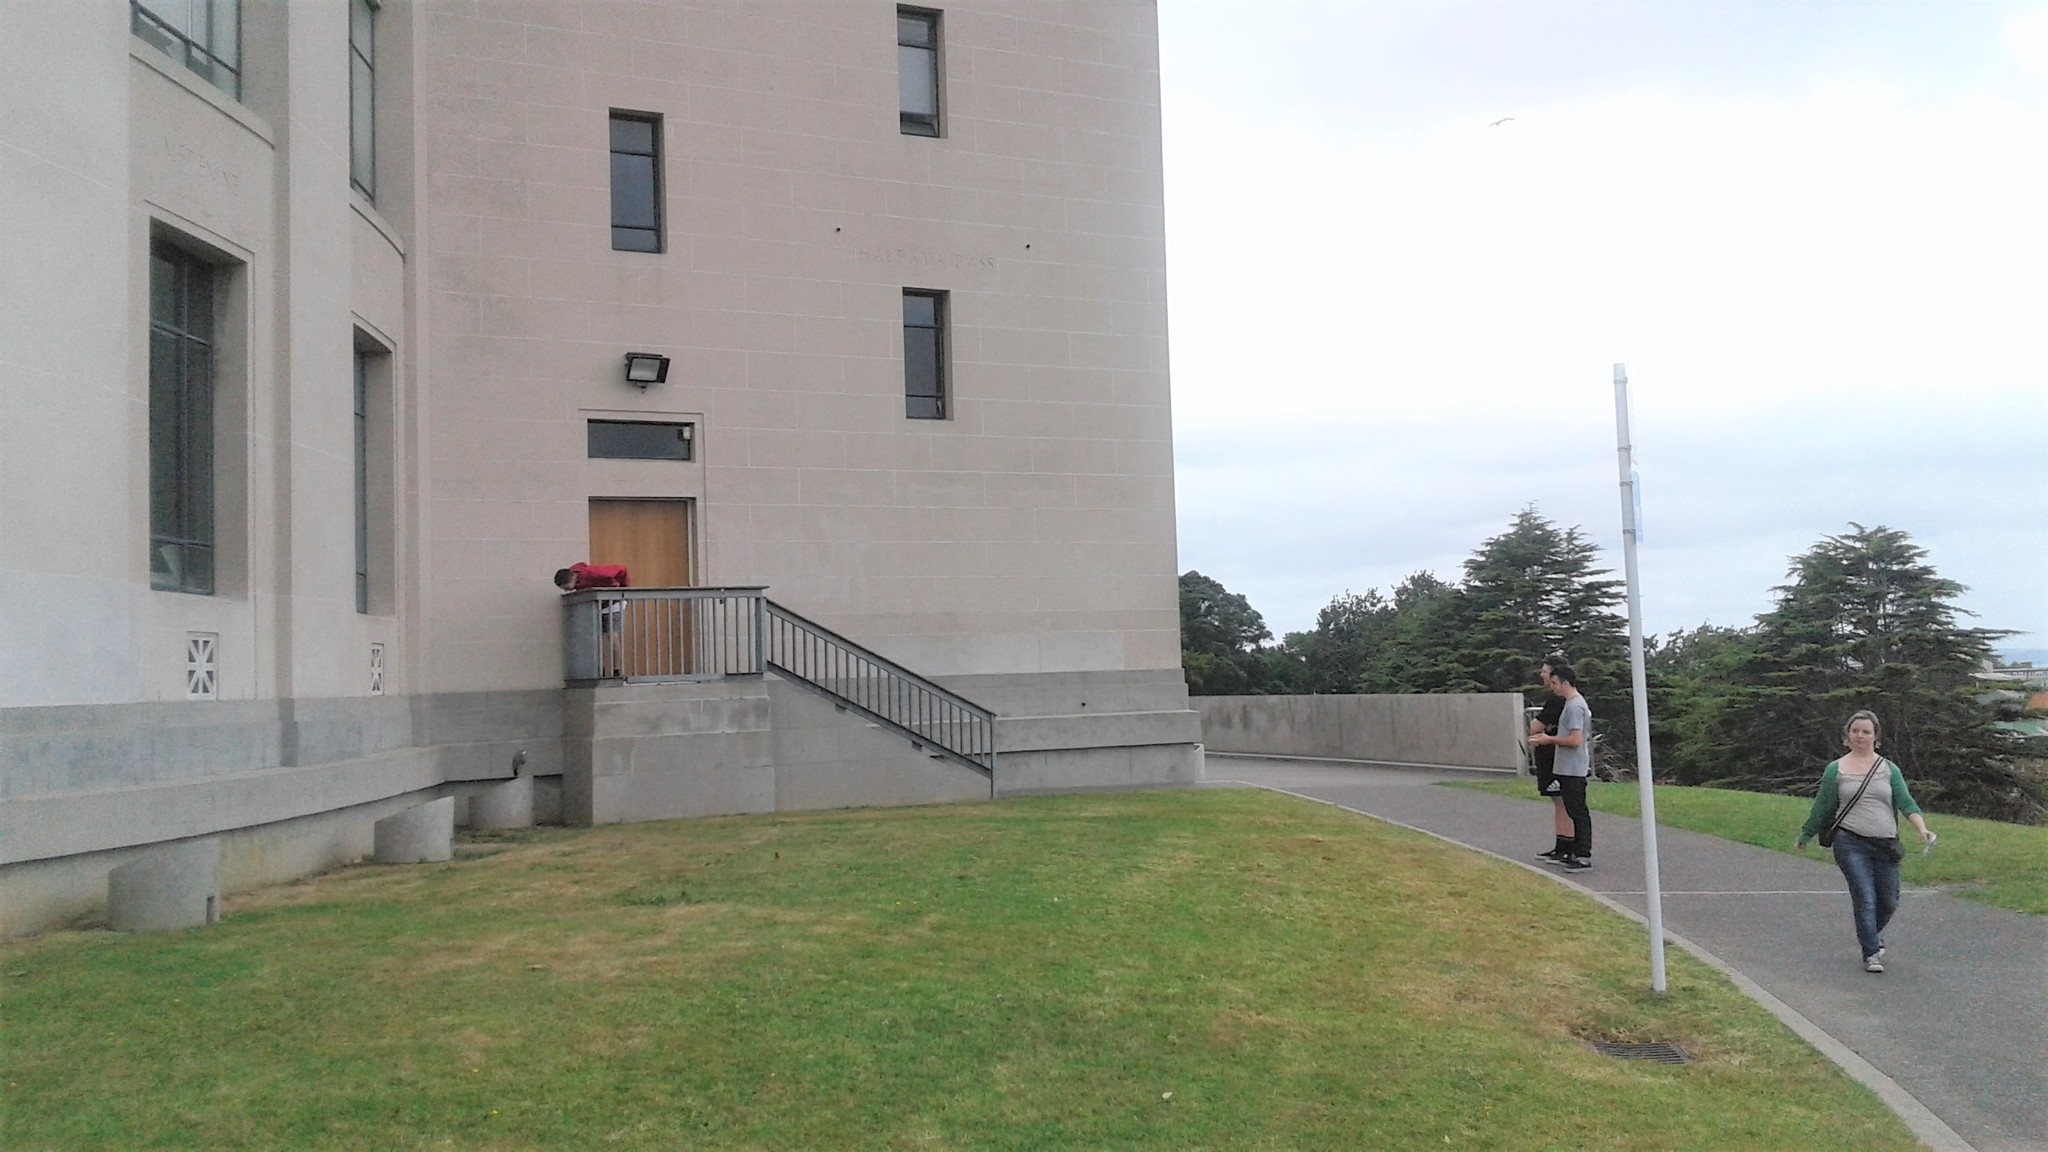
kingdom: Animalia
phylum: Chordata
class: Aves
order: Pelecaniformes
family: Ardeidae
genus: Egretta
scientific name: Egretta novaehollandiae
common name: White-faced heron
